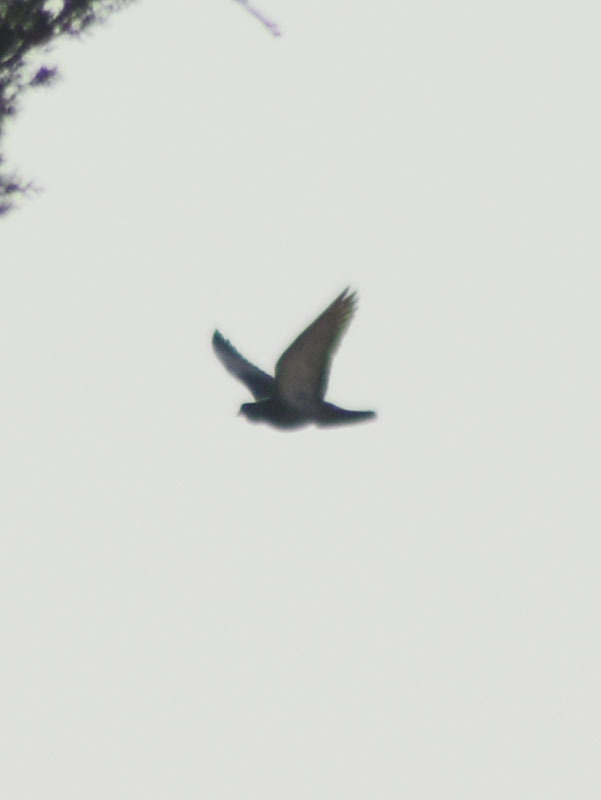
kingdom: Animalia
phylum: Chordata
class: Aves
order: Columbiformes
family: Columbidae
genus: Columba
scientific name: Columba livia
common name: Rock pigeon
